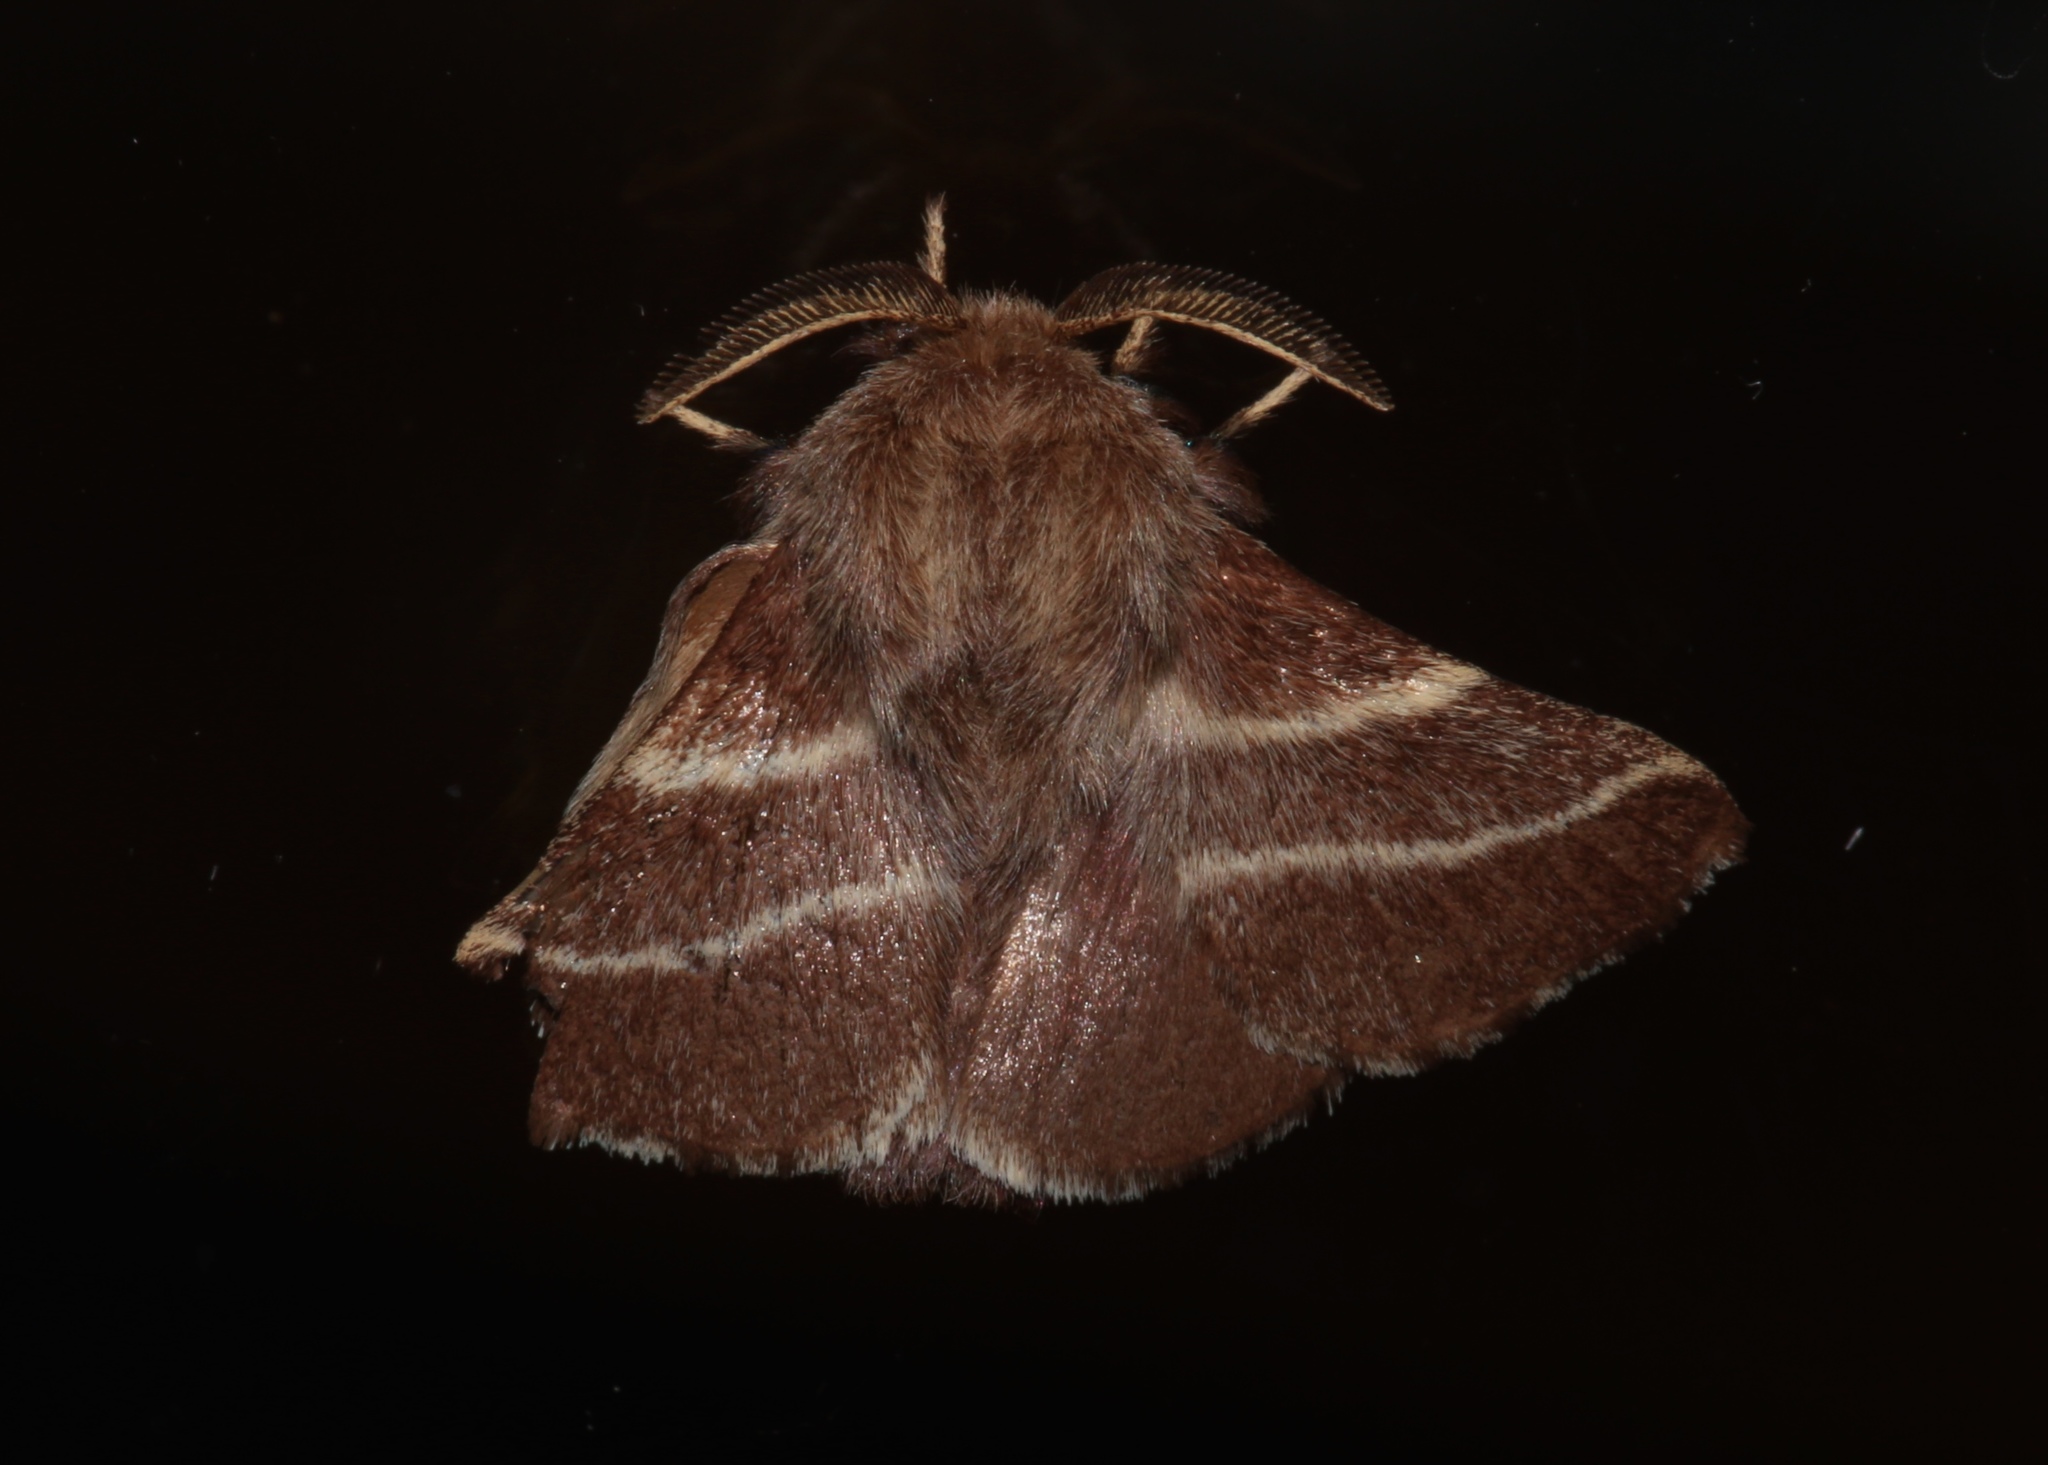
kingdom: Animalia
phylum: Arthropoda
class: Insecta
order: Lepidoptera
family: Lasiocampidae
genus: Malacosoma
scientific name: Malacosoma americana
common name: Eastern tent caterpillar moth
